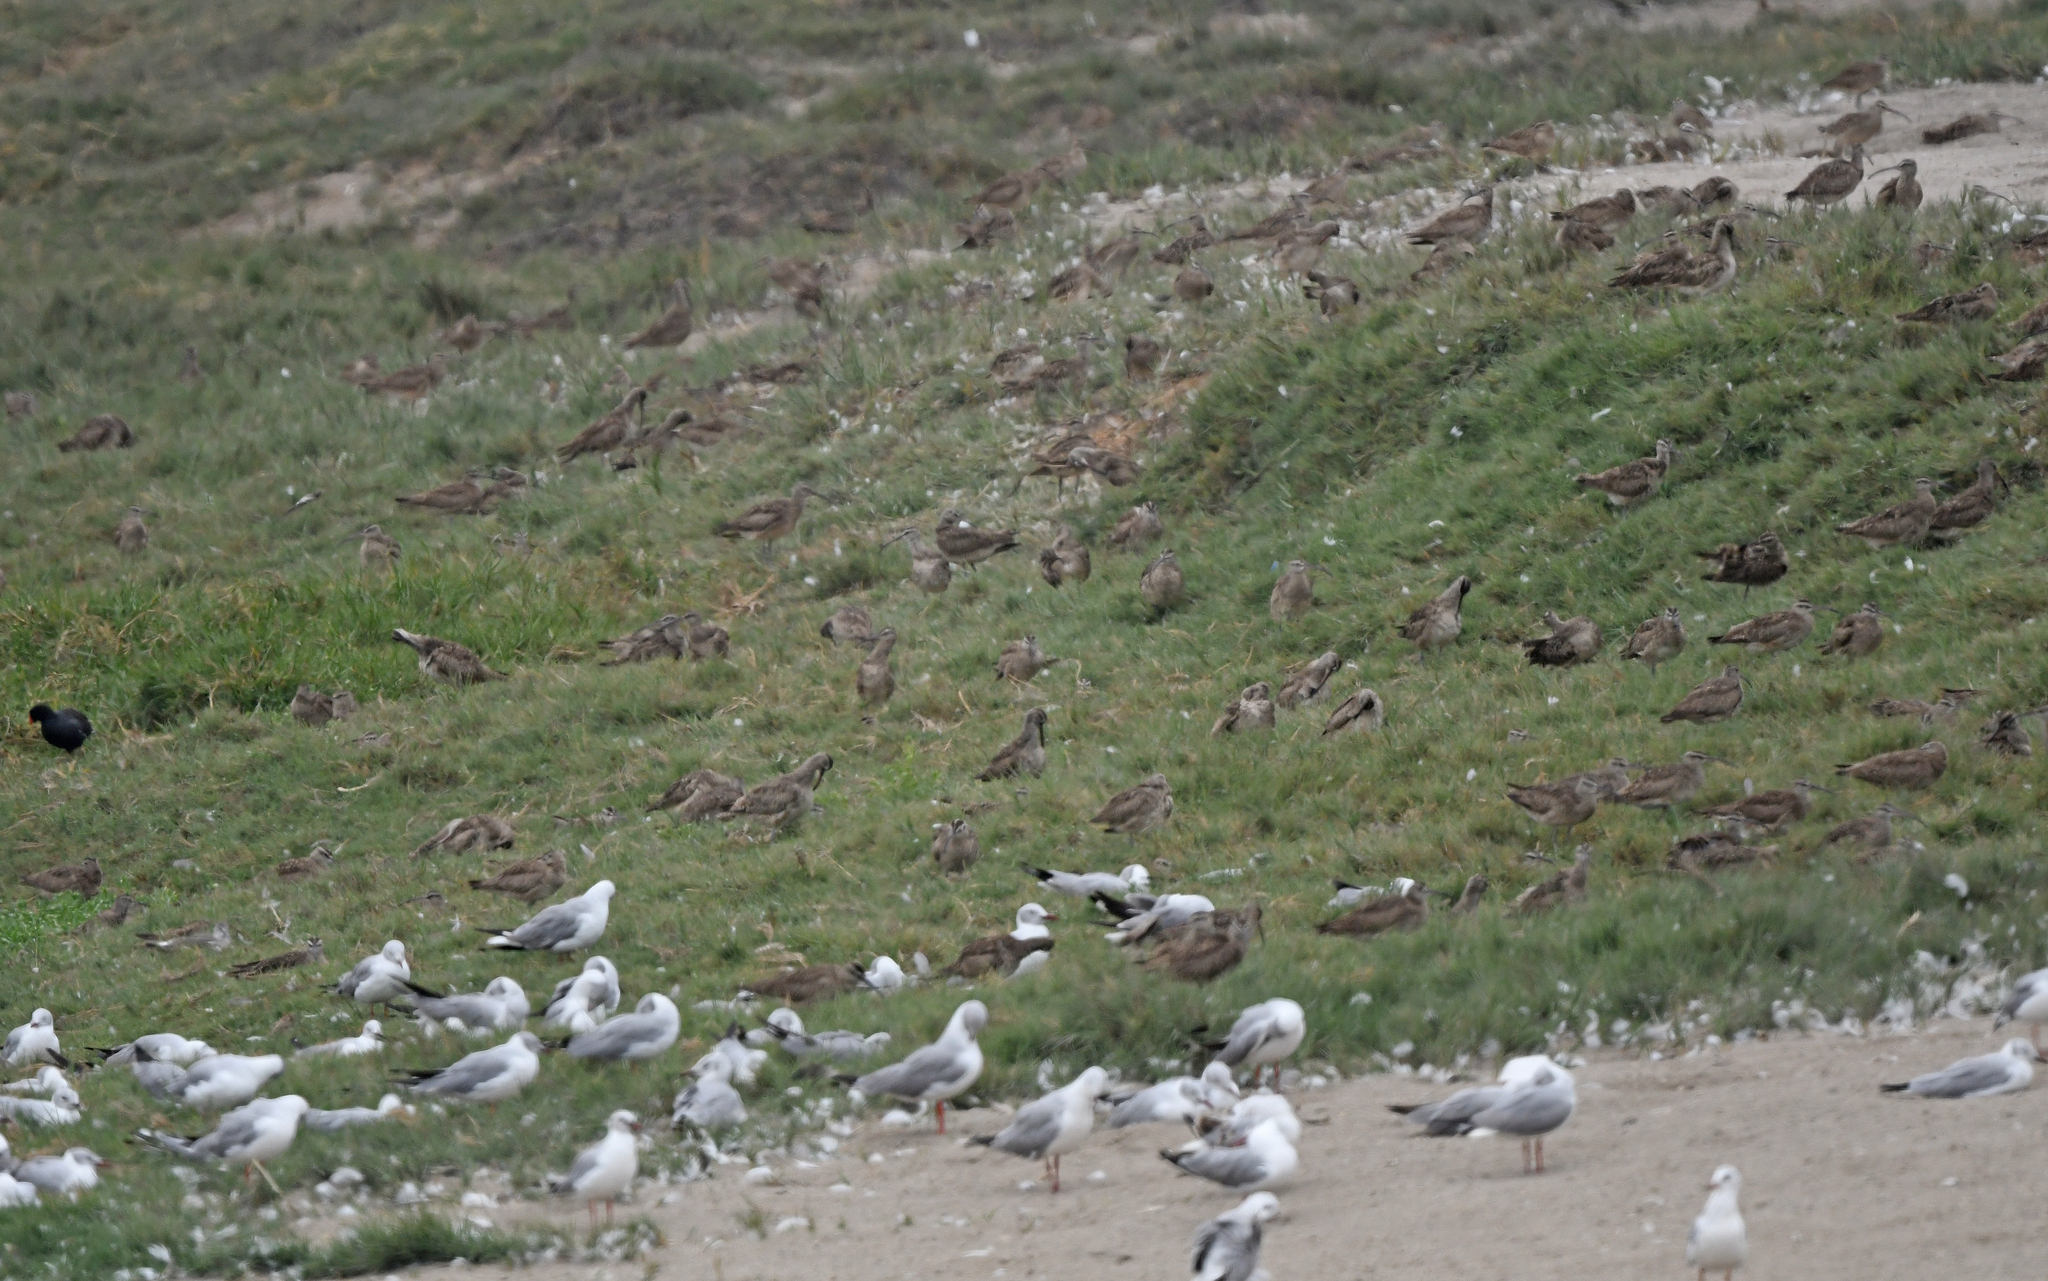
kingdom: Animalia
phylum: Chordata
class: Aves
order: Charadriiformes
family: Scolopacidae
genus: Numenius
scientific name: Numenius phaeopus
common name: Whimbrel
